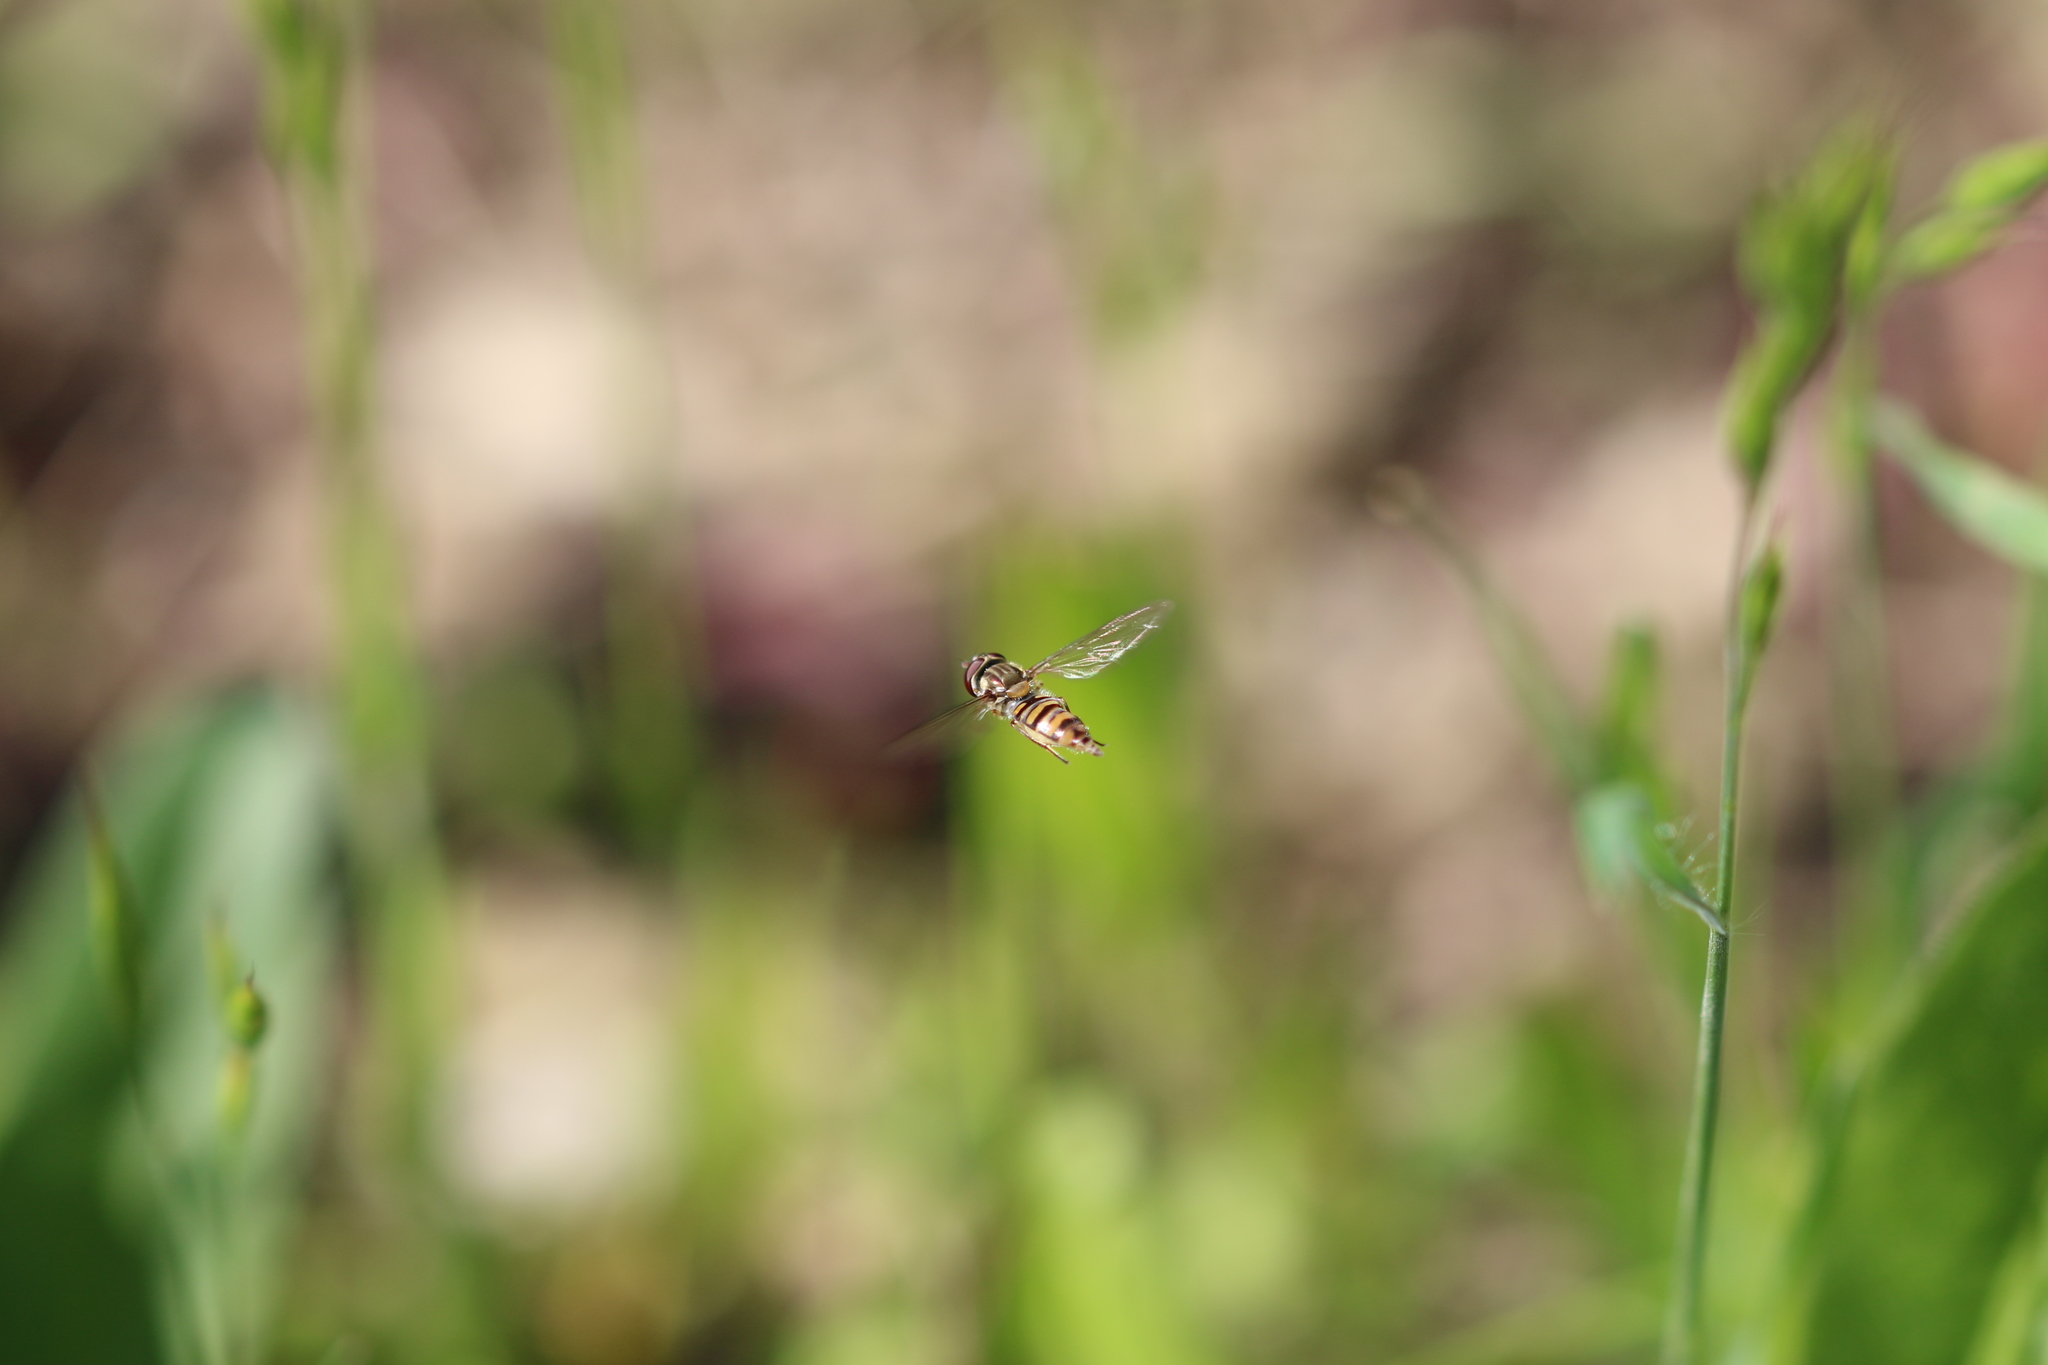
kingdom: Animalia
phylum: Arthropoda
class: Insecta
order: Diptera
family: Syrphidae
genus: Episyrphus
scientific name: Episyrphus balteatus
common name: Marmalade hoverfly
